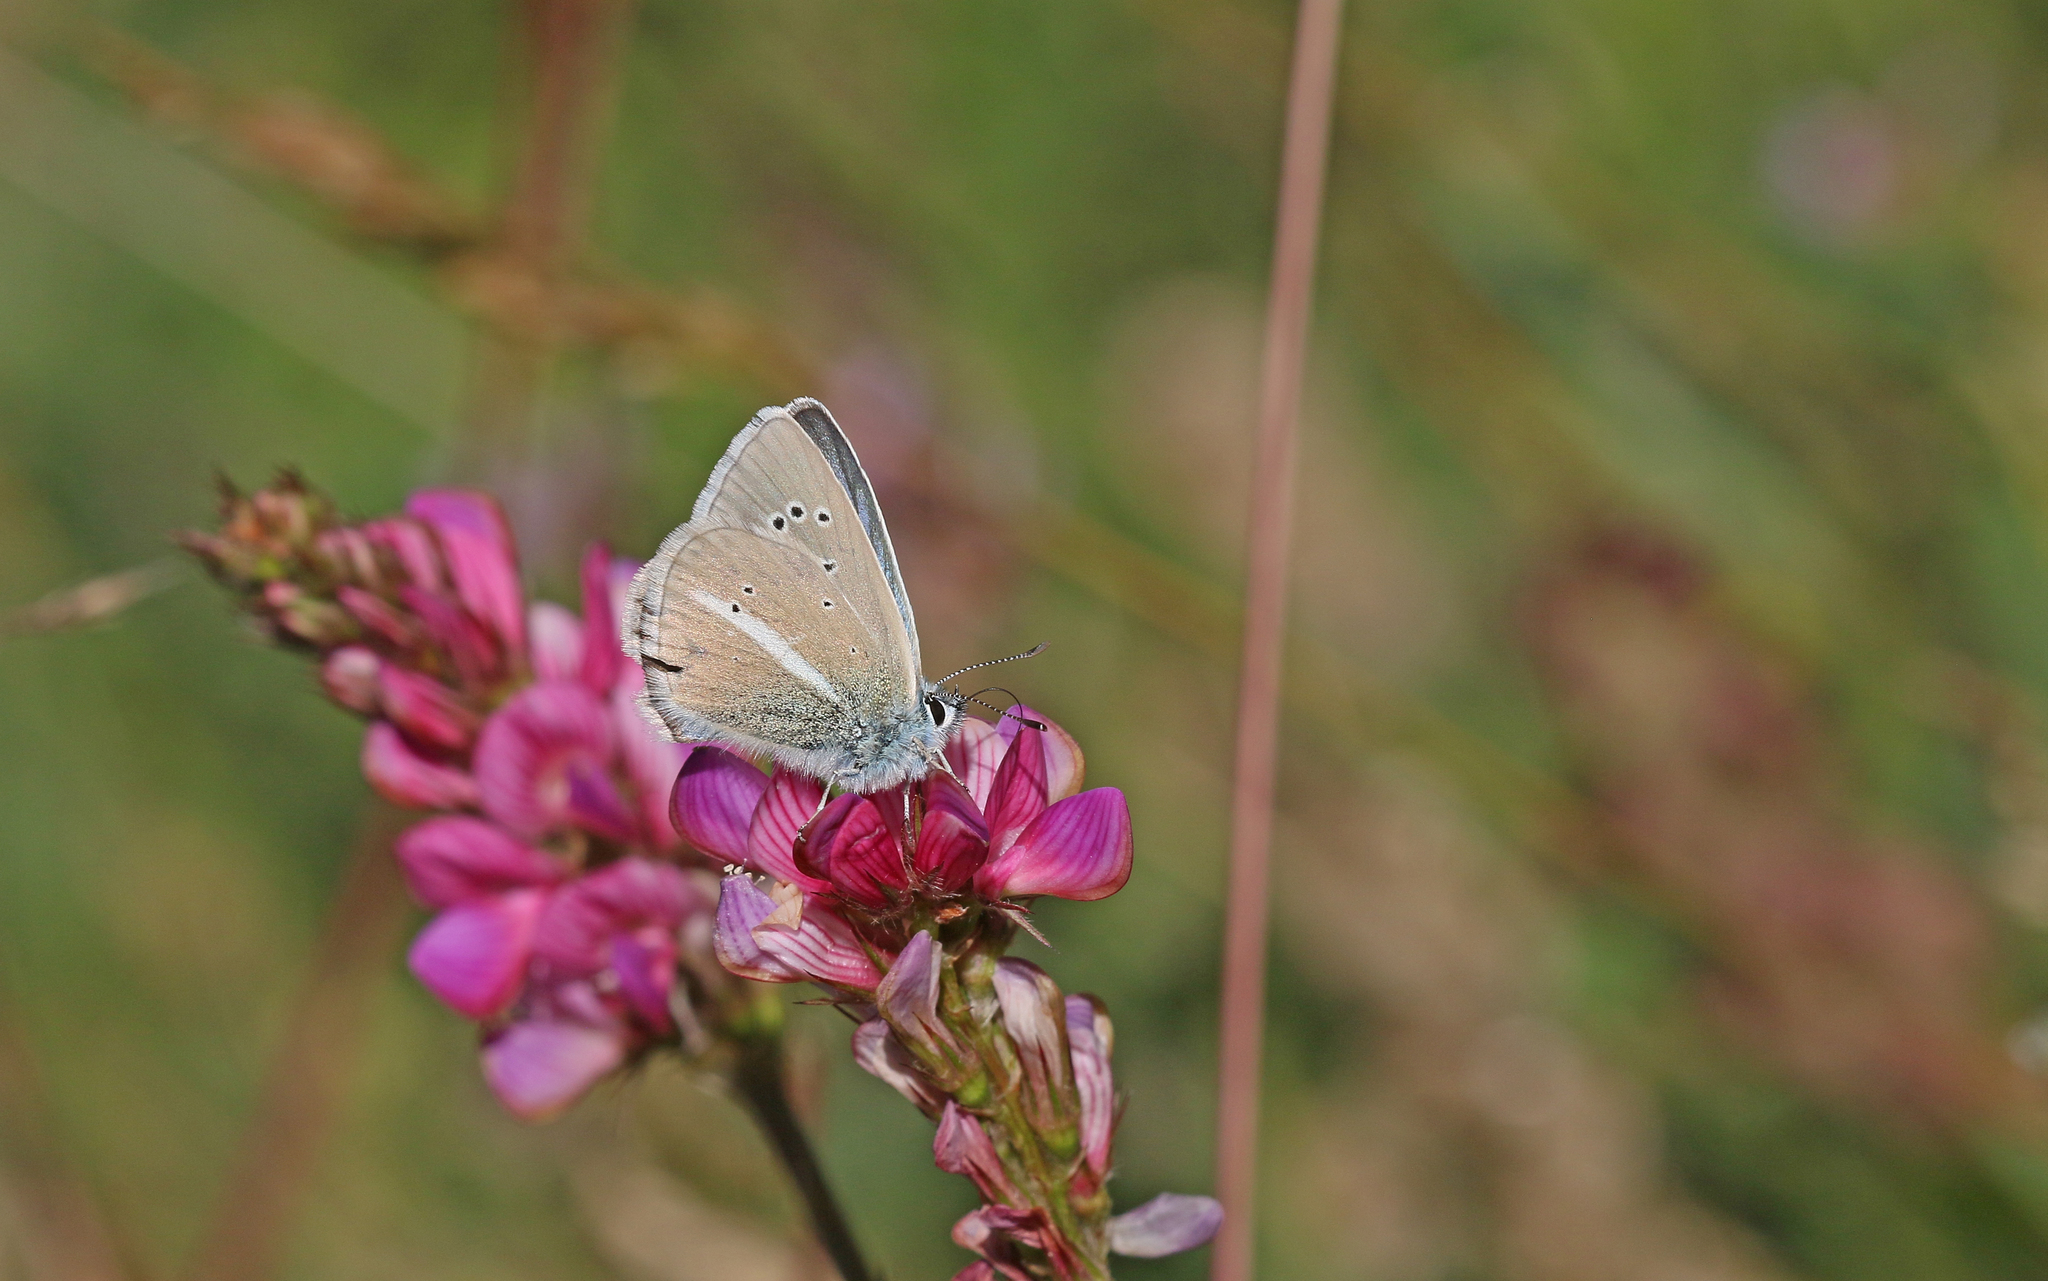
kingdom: Animalia
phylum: Arthropoda
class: Insecta
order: Lepidoptera
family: Lycaenidae
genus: Agrodiaetus
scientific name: Agrodiaetus damon
